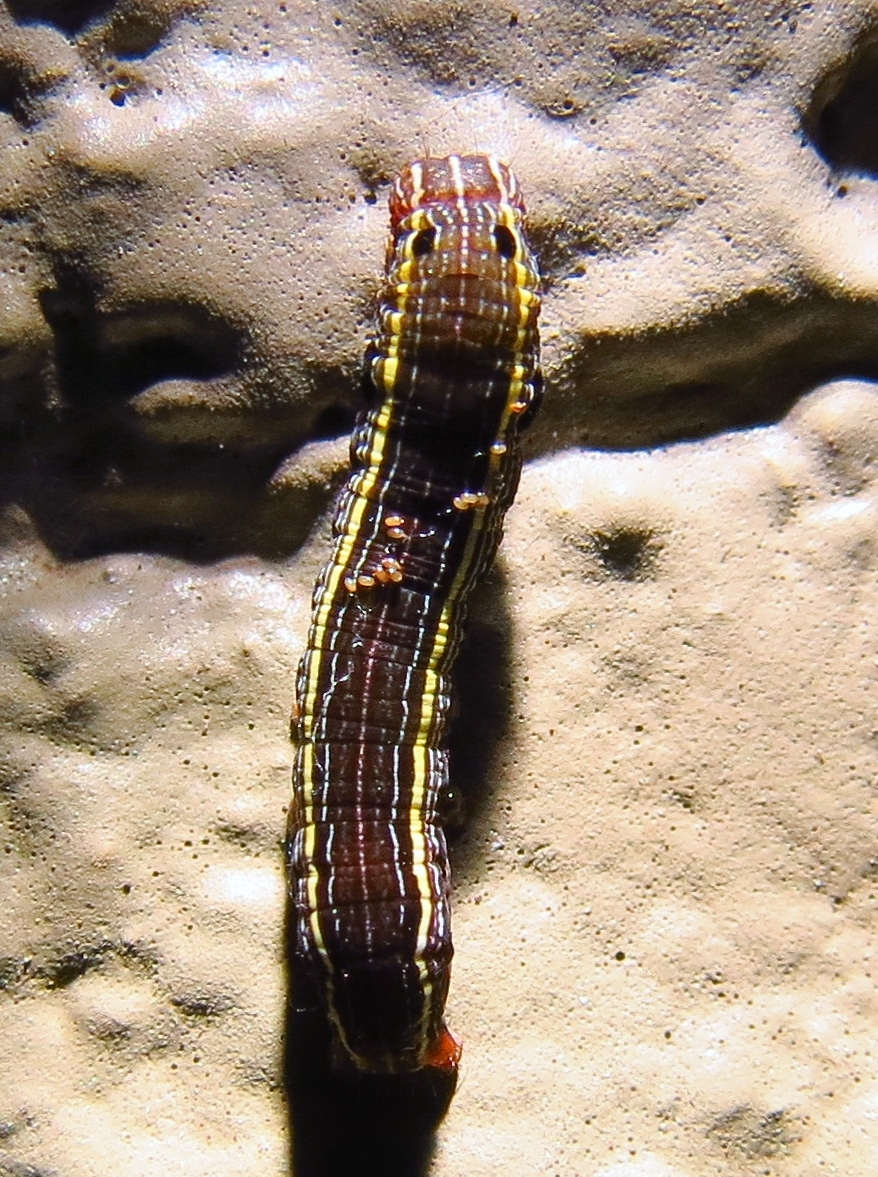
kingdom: Animalia
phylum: Arthropoda
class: Insecta
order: Lepidoptera
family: Noctuidae
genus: Spodoptera
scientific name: Spodoptera ornithogalli
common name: Yellow-striped armyworm
